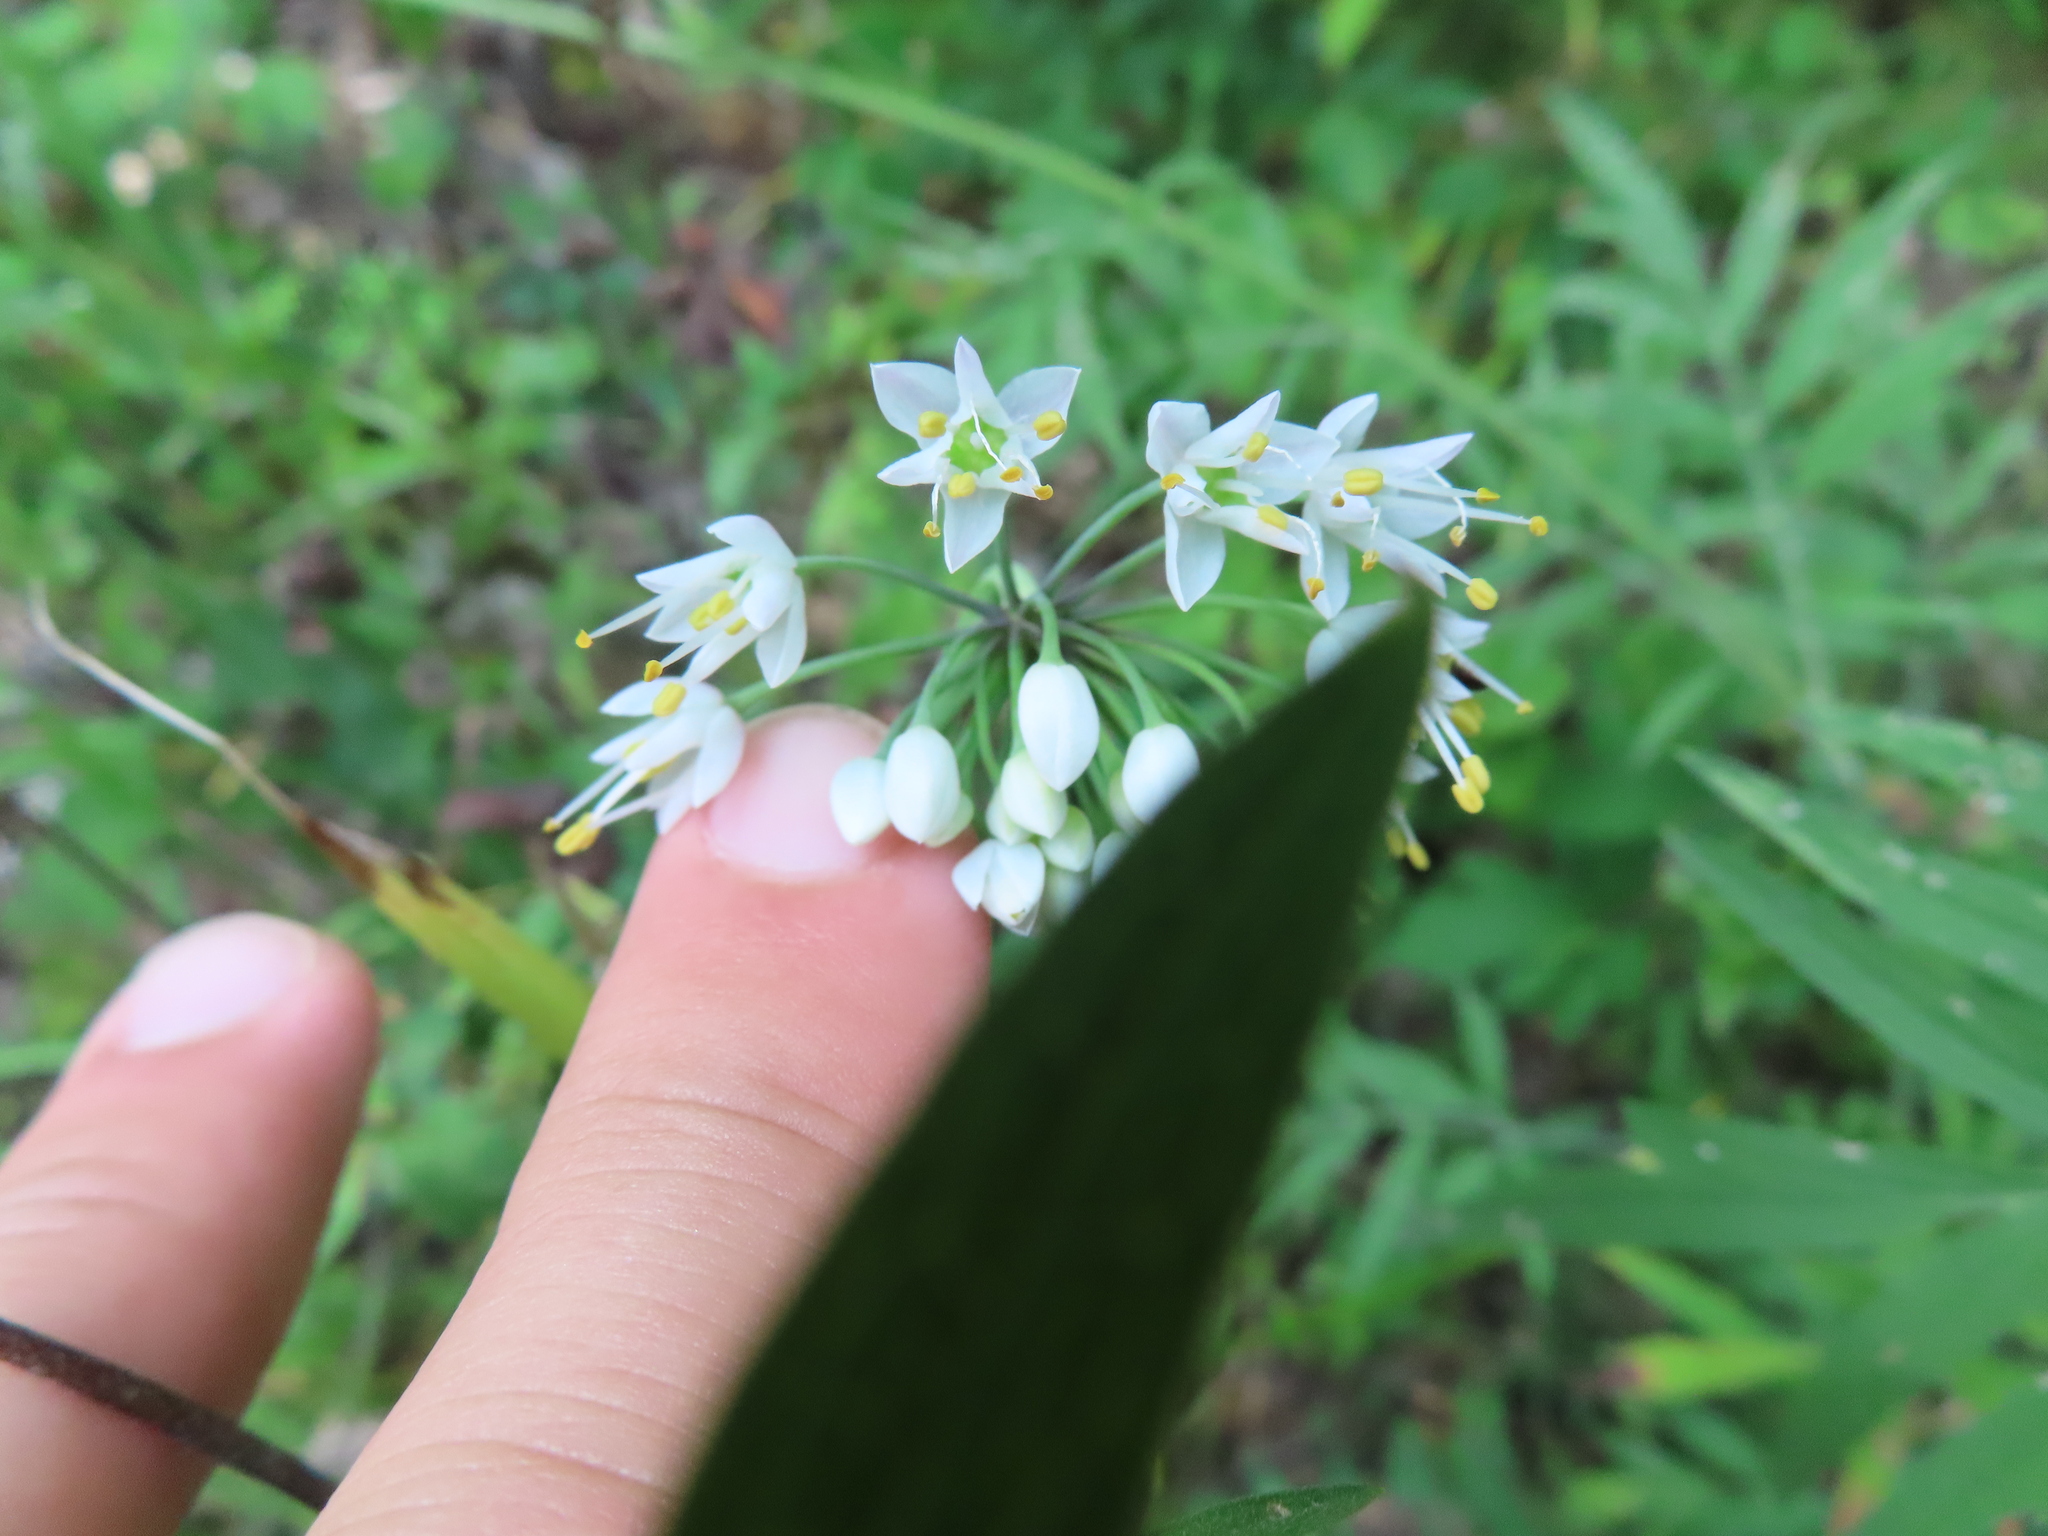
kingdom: Plantae
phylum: Tracheophyta
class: Liliopsida
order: Asparagales
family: Amaryllidaceae
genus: Allium
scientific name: Allium cernuum
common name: Nodding onion
